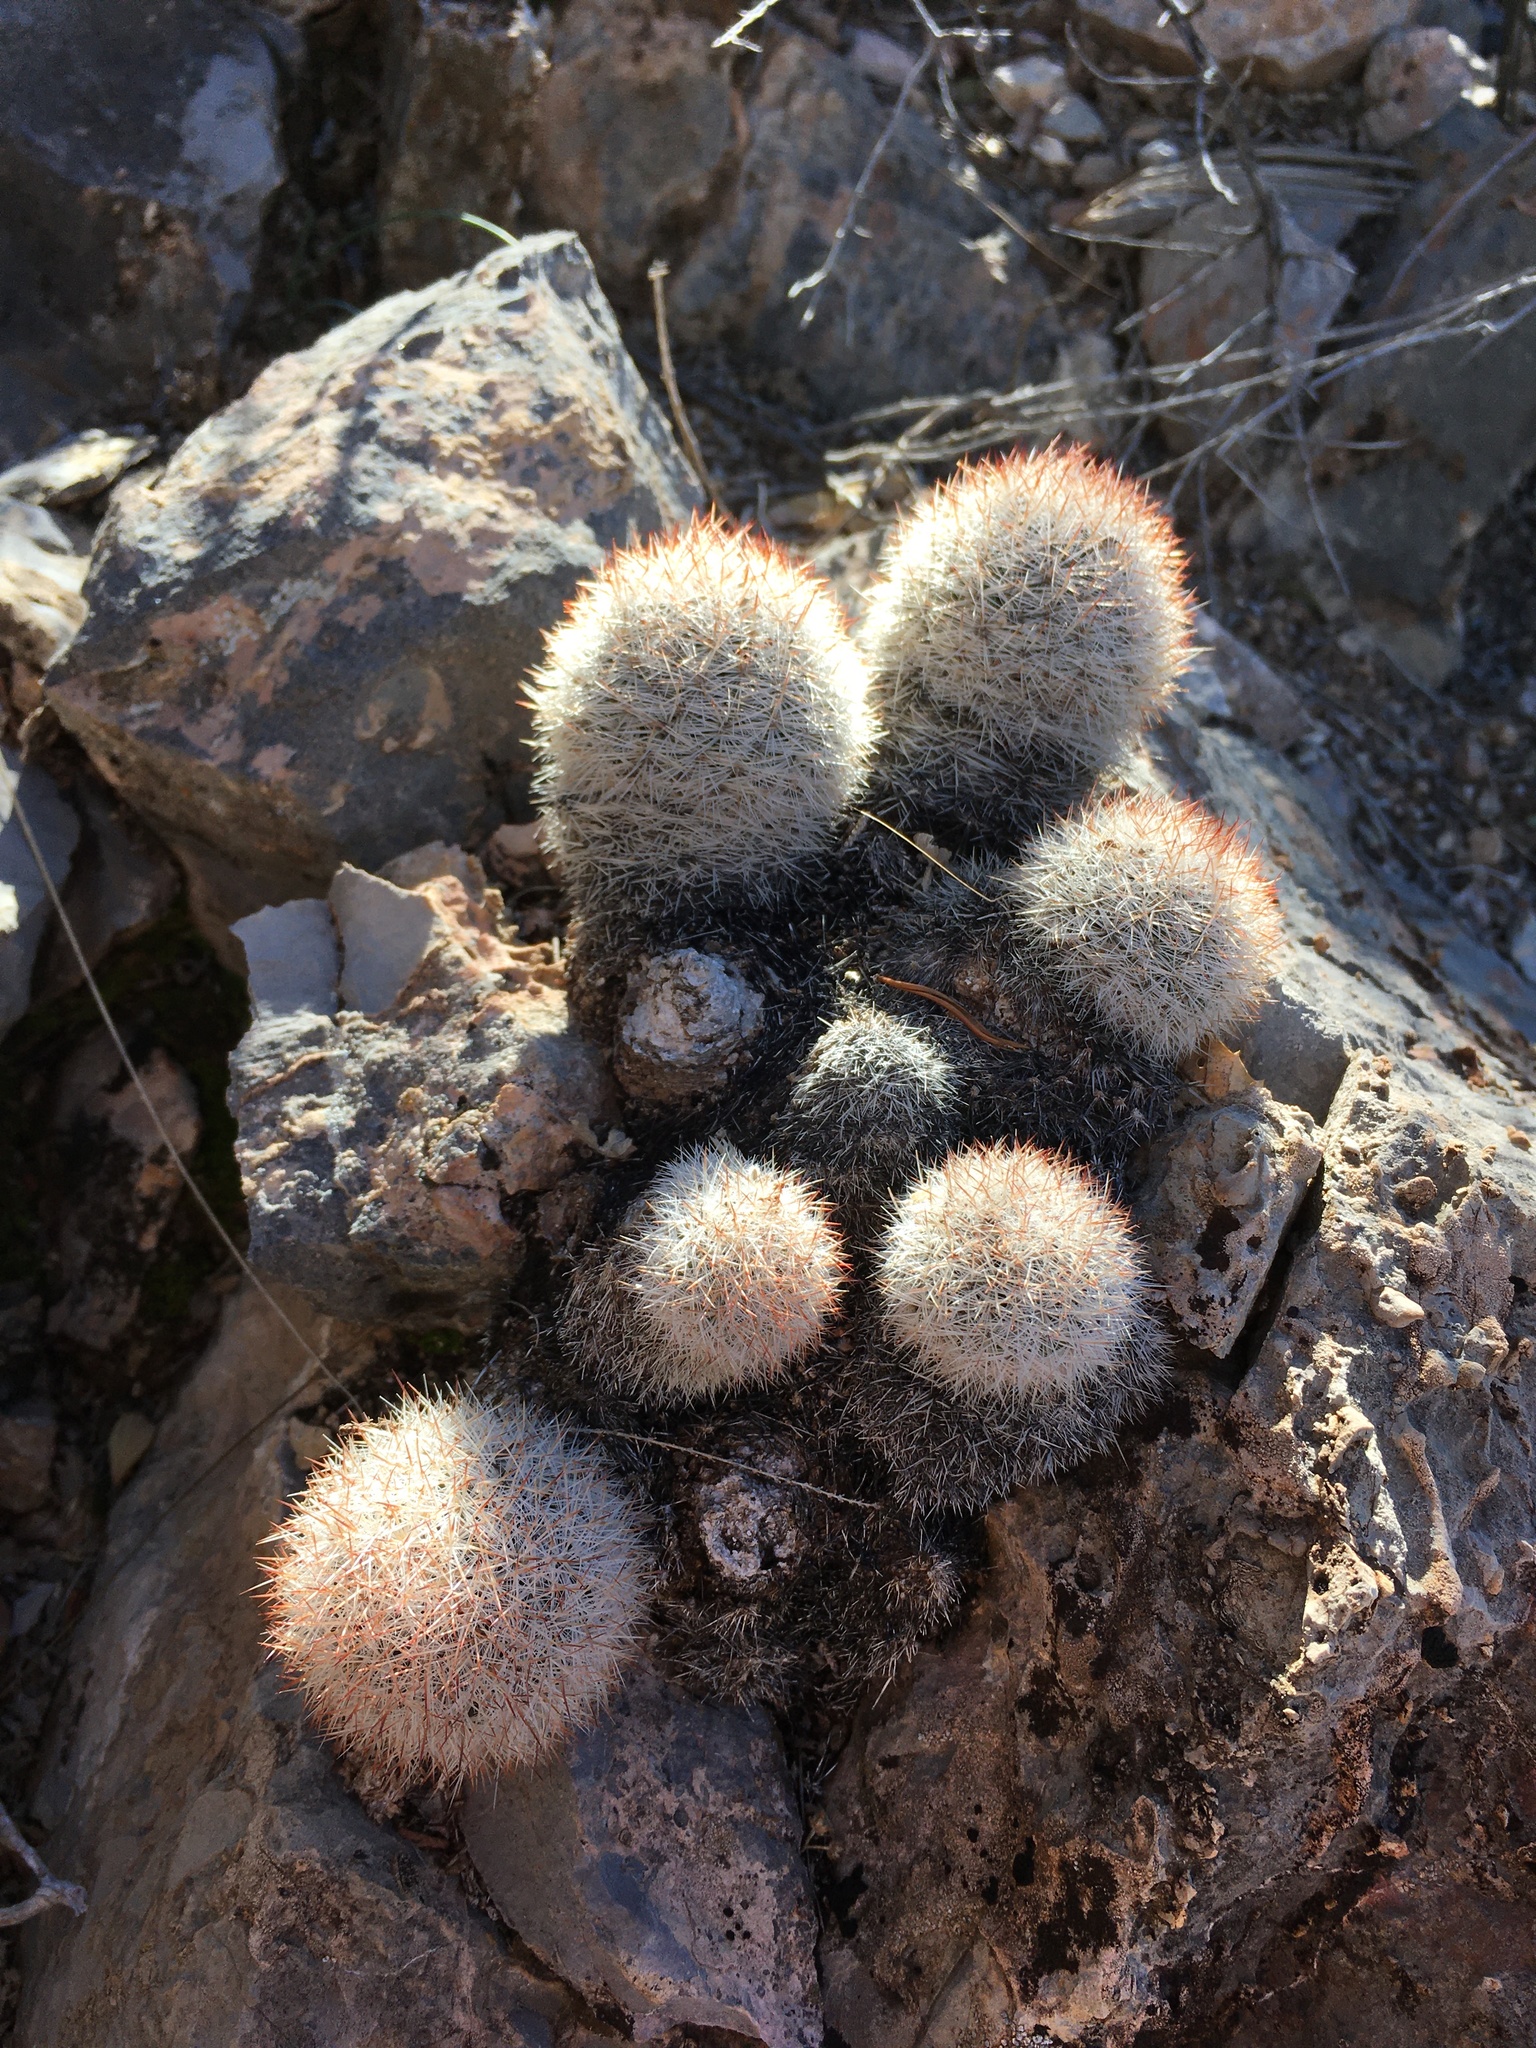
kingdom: Plantae
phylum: Tracheophyta
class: Magnoliopsida
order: Caryophyllales
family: Cactaceae
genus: Pelecyphora
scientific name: Pelecyphora sneedii
